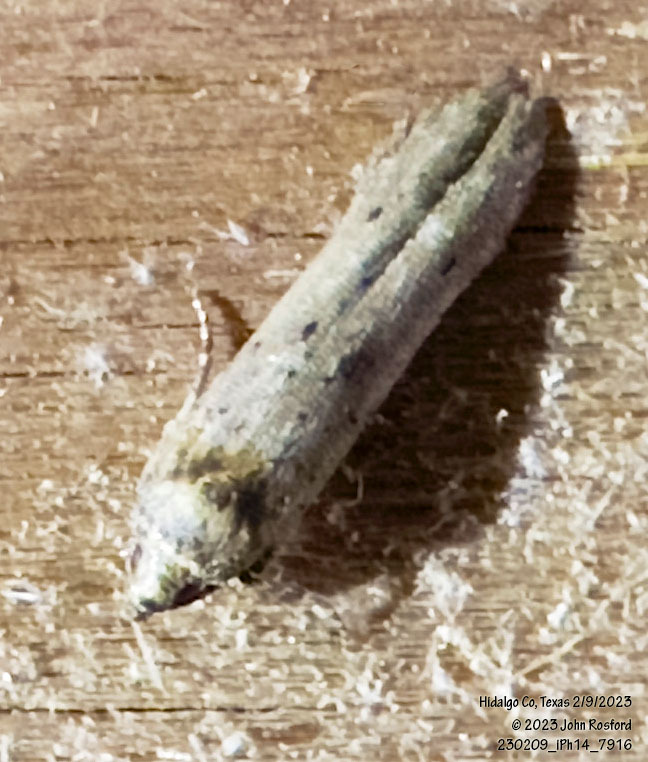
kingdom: Animalia
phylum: Arthropoda
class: Insecta
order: Lepidoptera
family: Cosmopterigidae
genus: Obithome
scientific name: Obithome punctiferella
